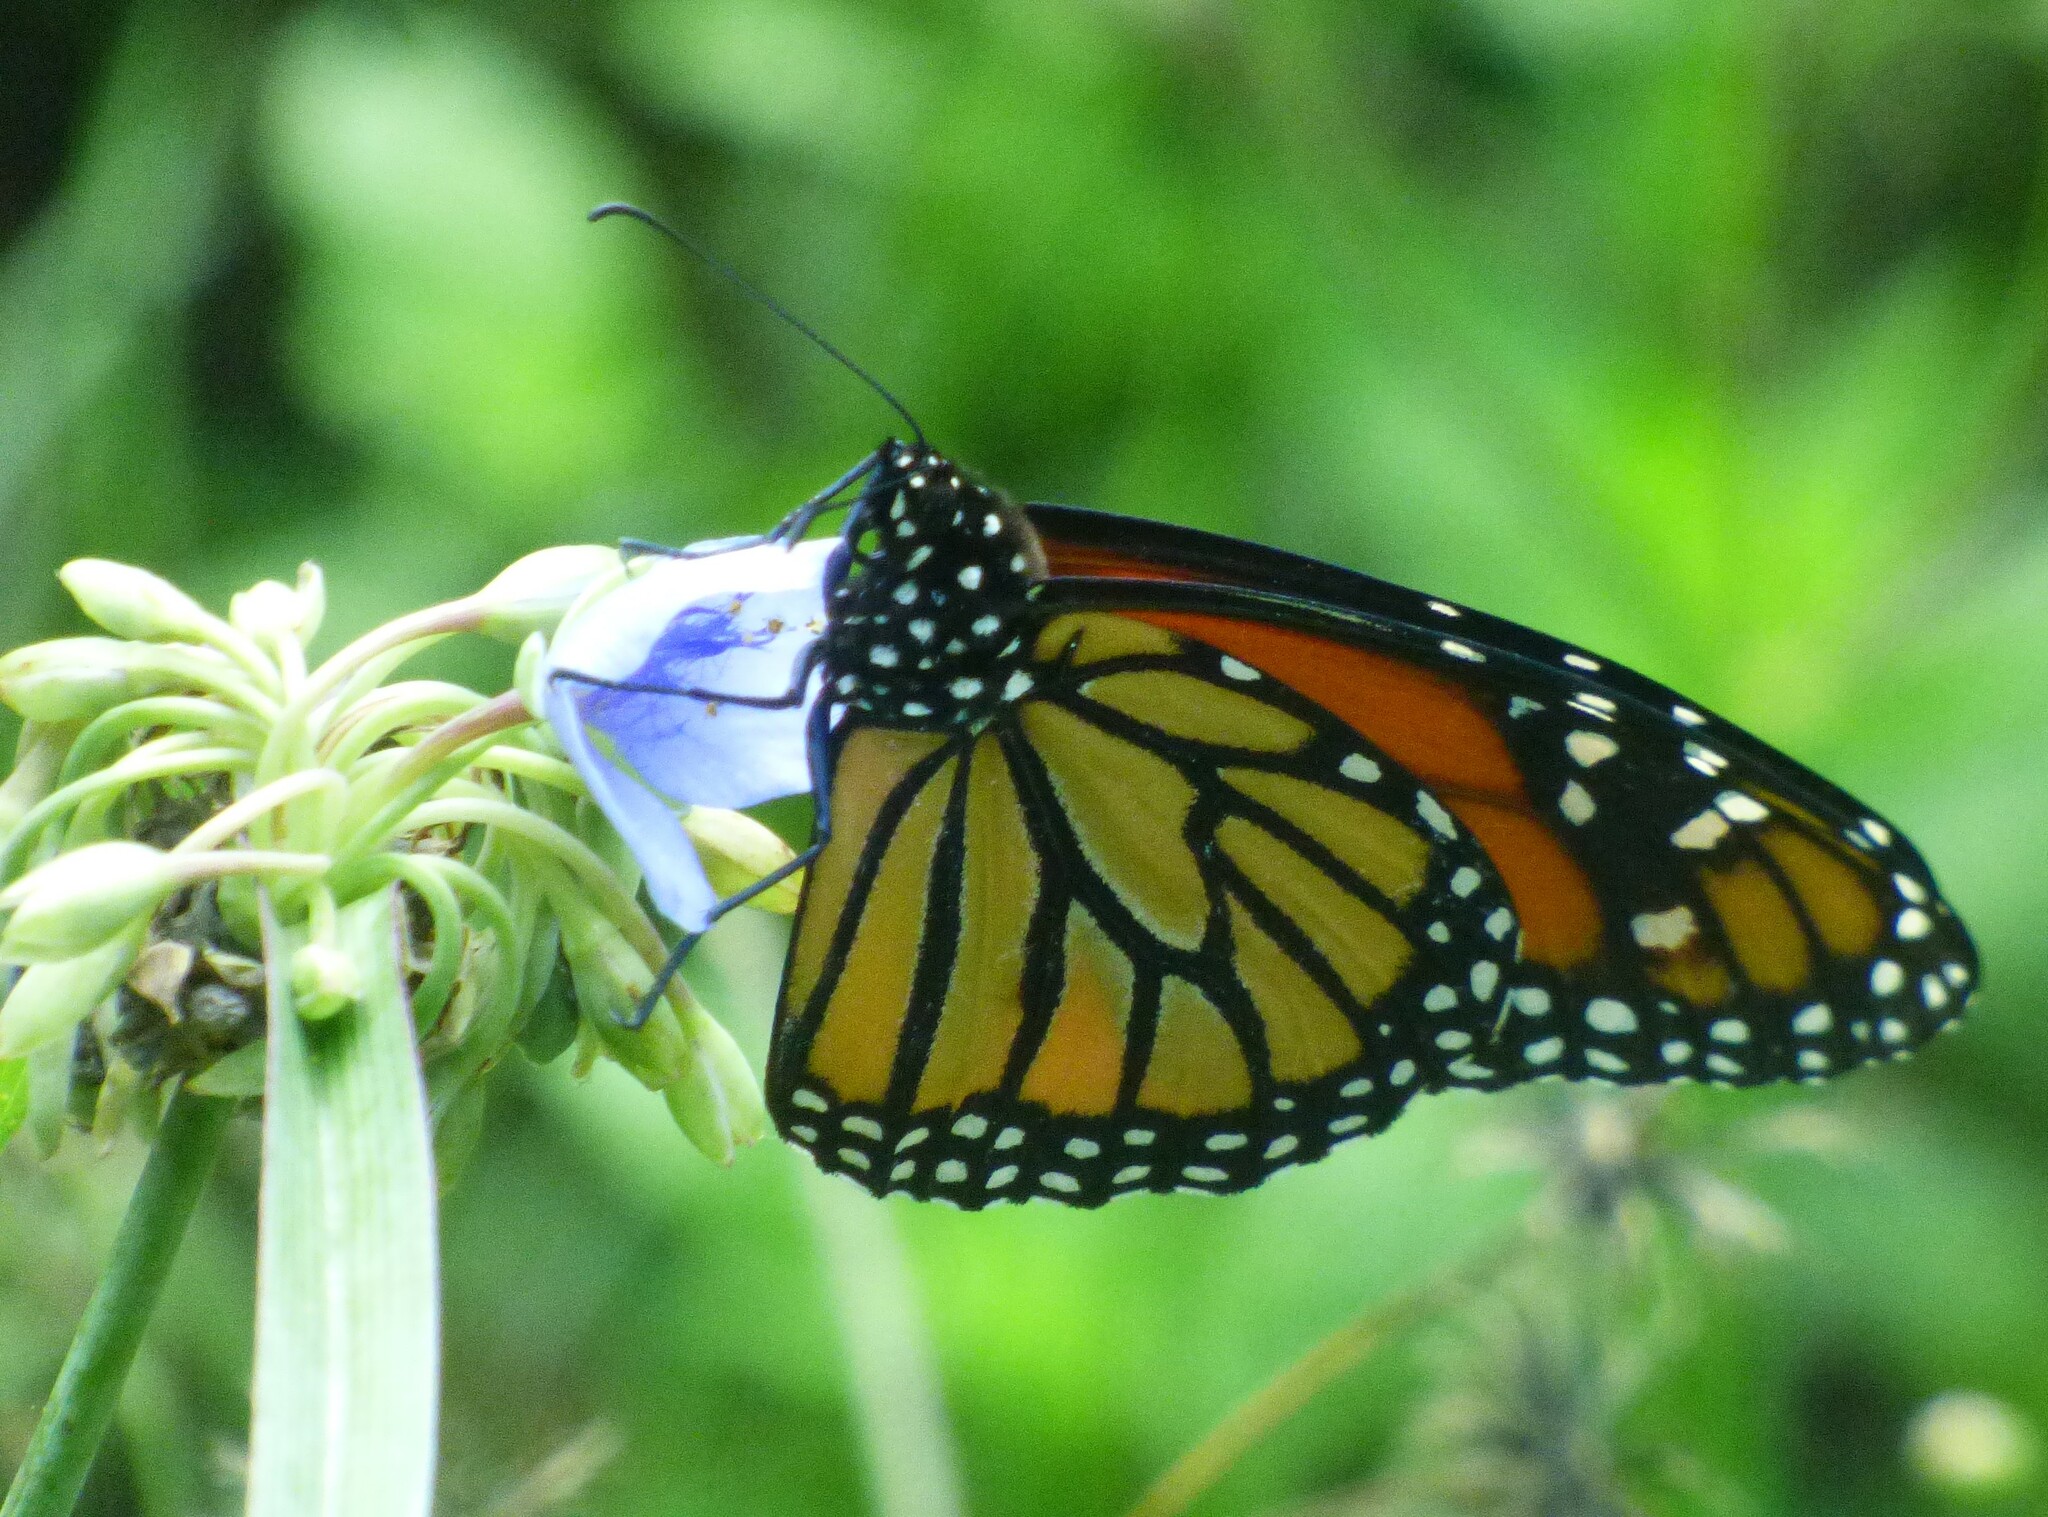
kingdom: Animalia
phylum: Arthropoda
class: Insecta
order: Lepidoptera
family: Nymphalidae
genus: Danaus
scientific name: Danaus plexippus
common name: Monarch
